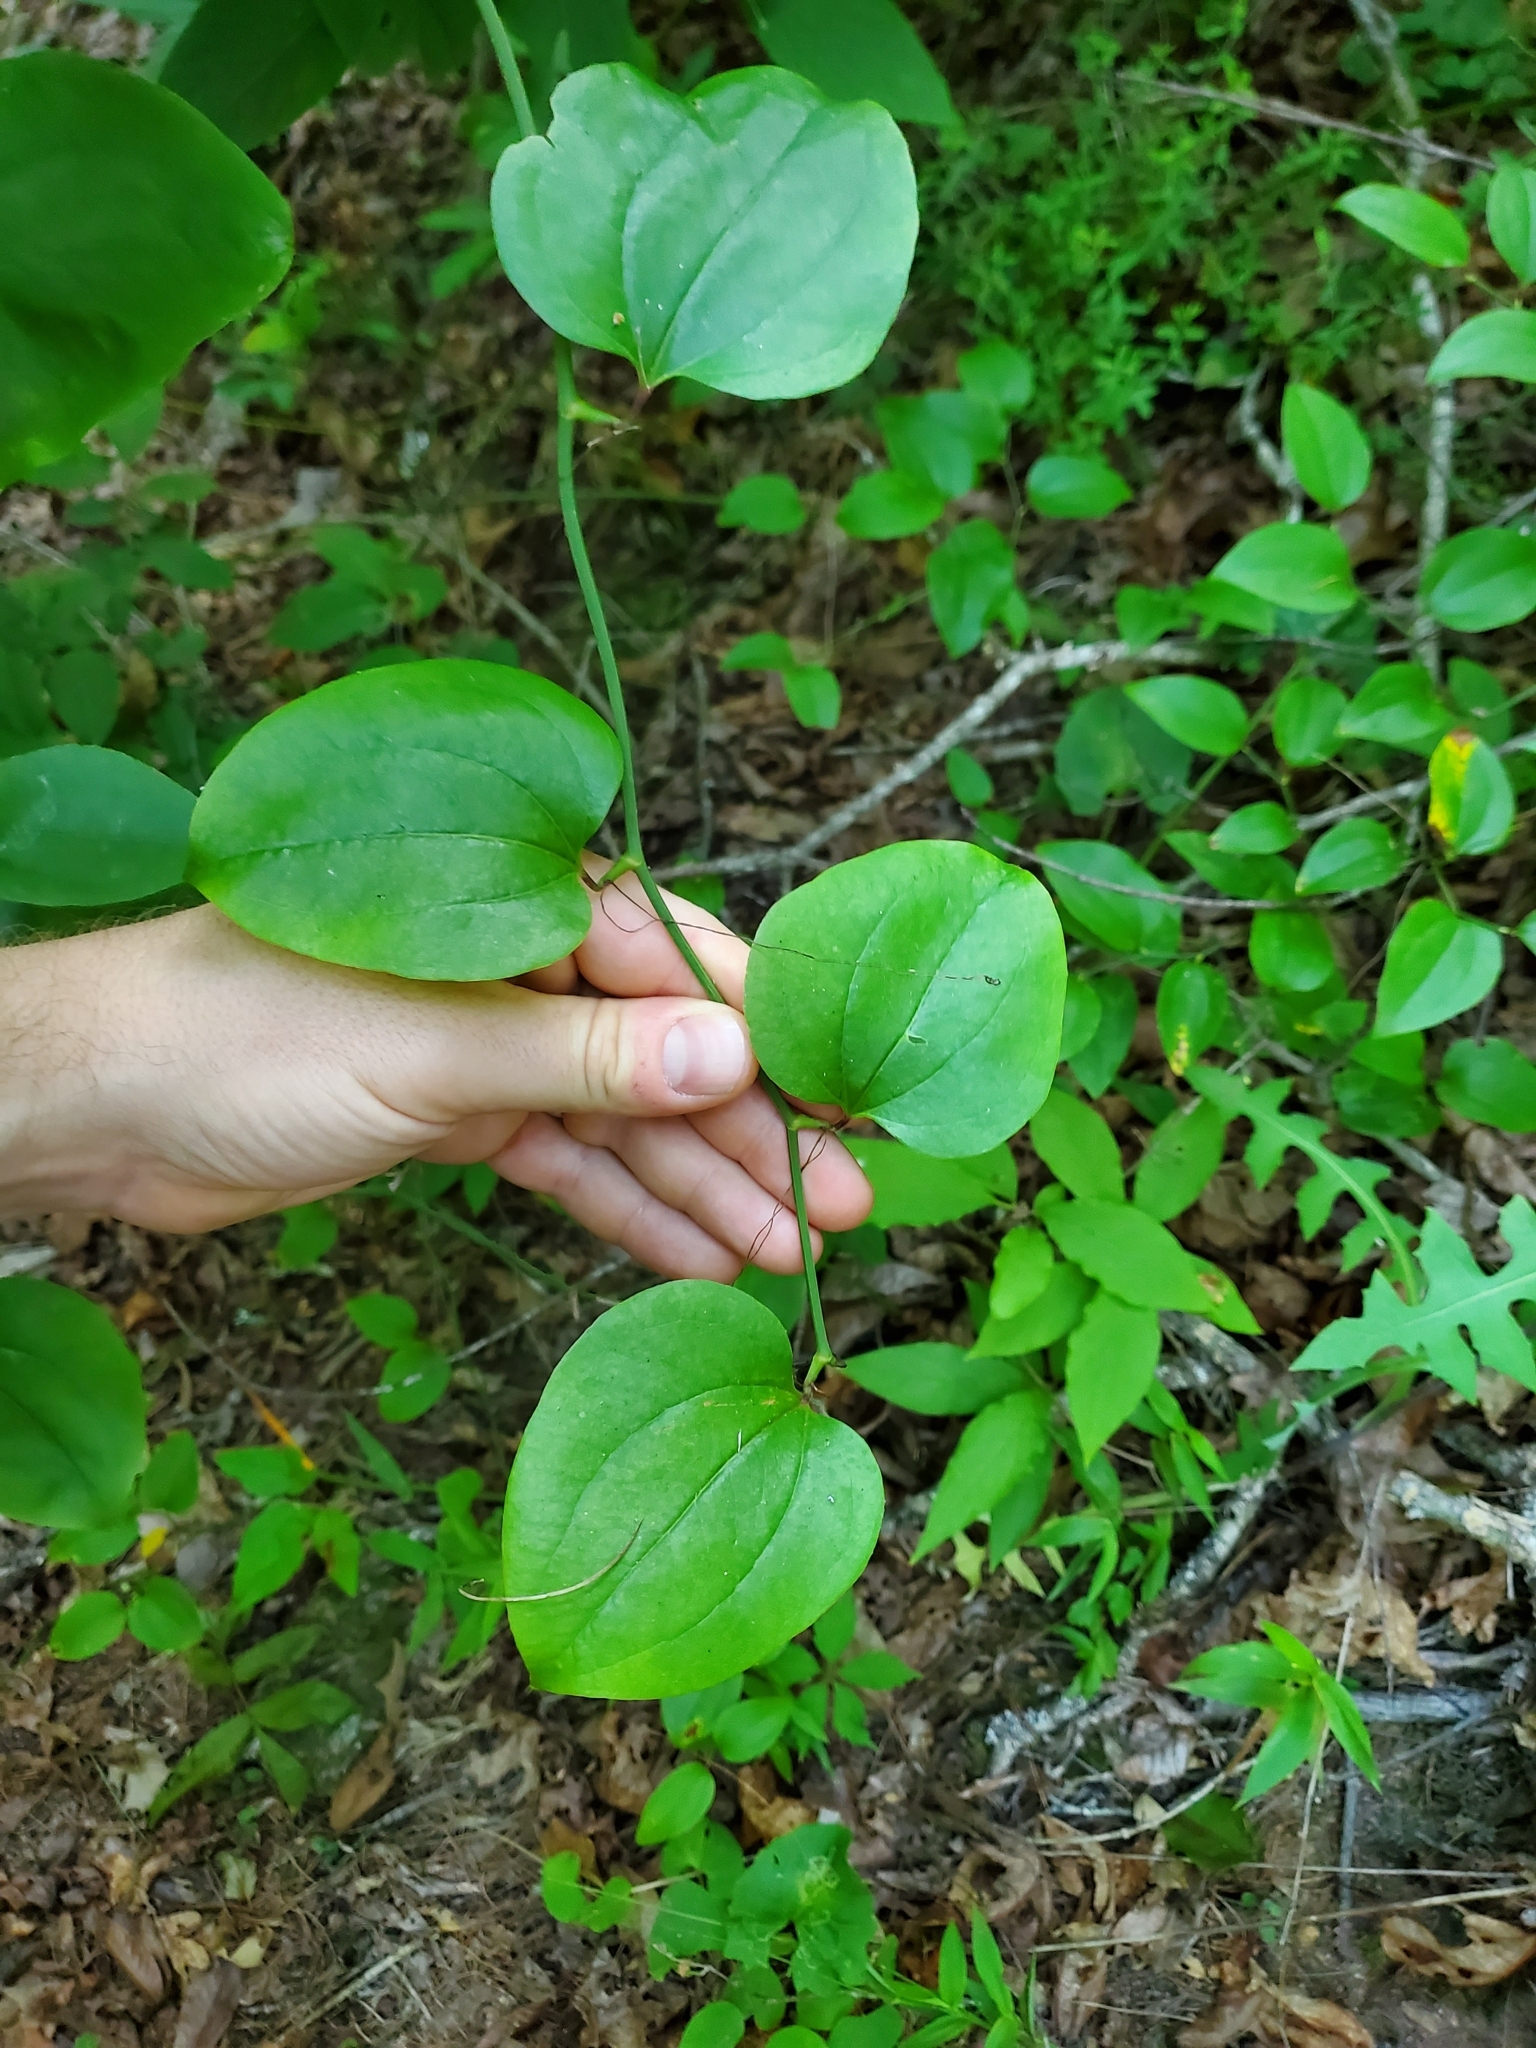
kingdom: Plantae
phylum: Tracheophyta
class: Liliopsida
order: Liliales
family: Smilacaceae
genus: Smilax
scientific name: Smilax rotundifolia
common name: Bullbriar
